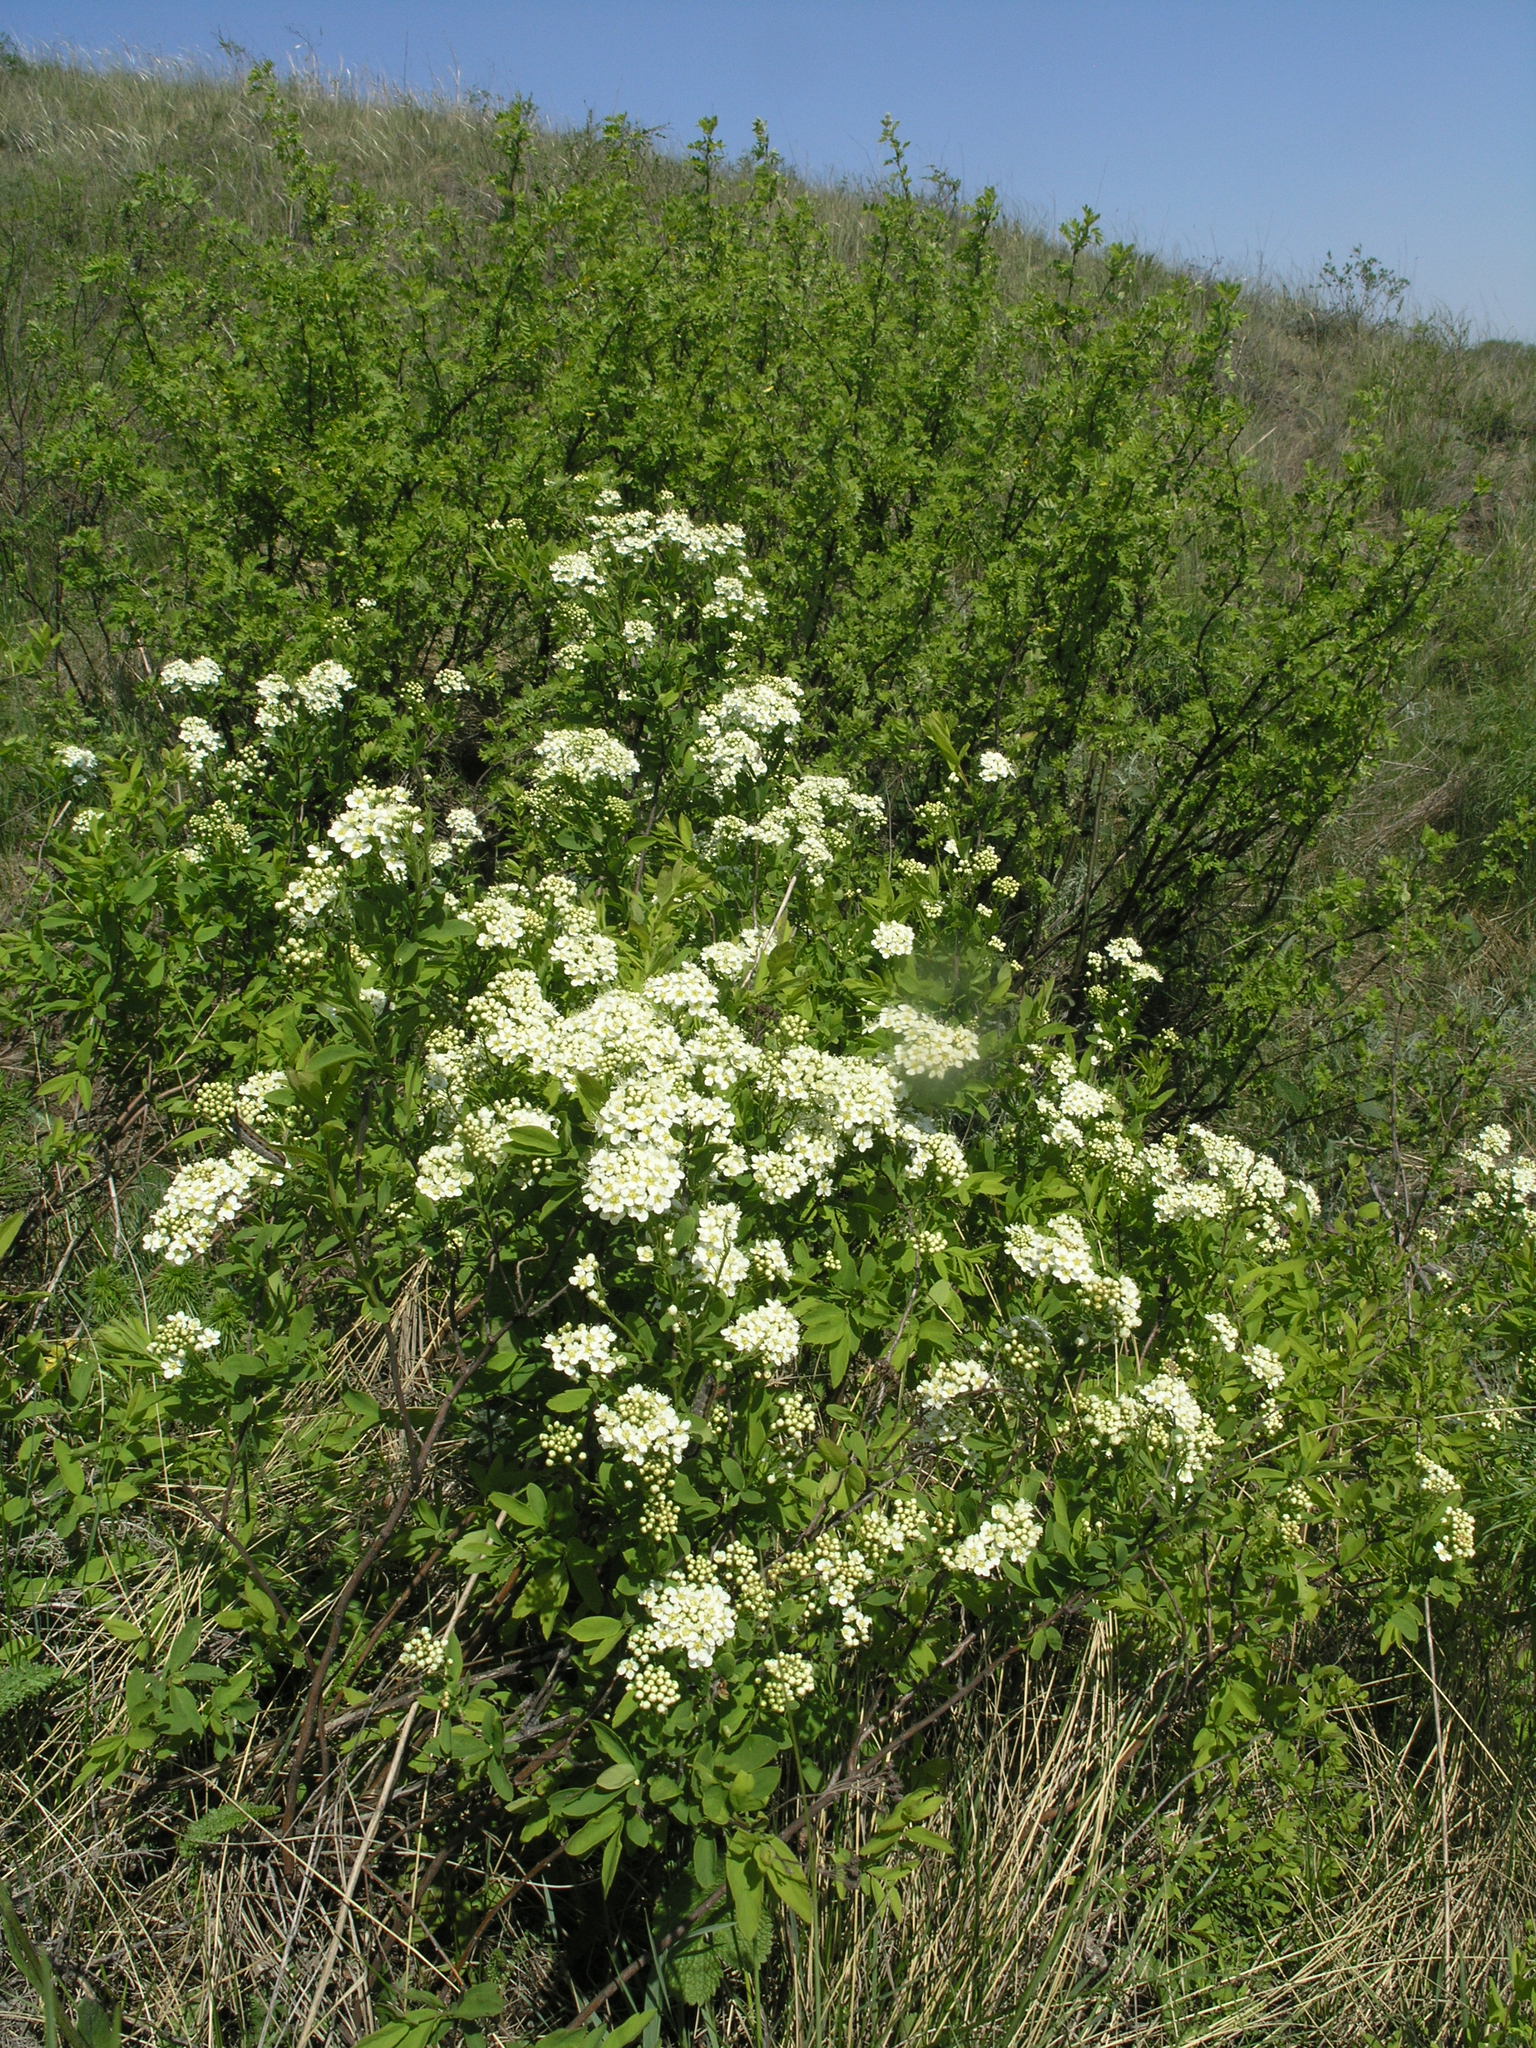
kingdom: Plantae
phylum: Tracheophyta
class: Magnoliopsida
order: Rosales
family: Rosaceae
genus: Spiraea
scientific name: Spiraea media
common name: Russian spiraea
